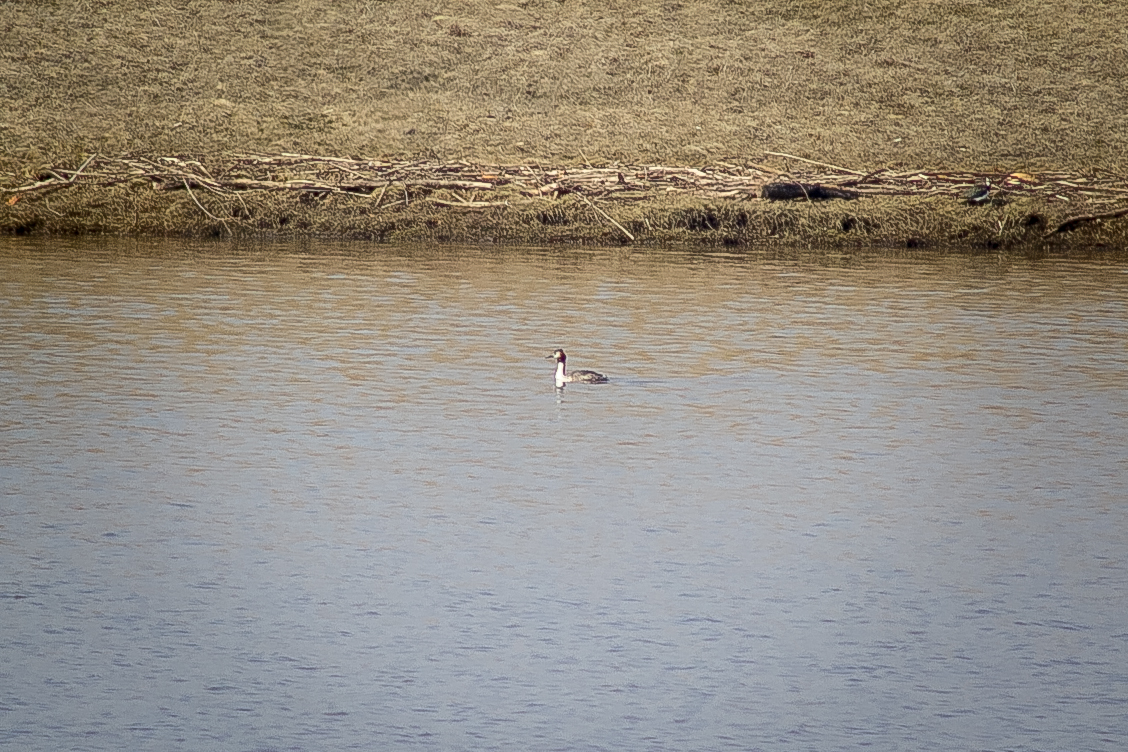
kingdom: Animalia
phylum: Chordata
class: Aves
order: Podicipediformes
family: Podicipedidae
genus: Podiceps
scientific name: Podiceps cristatus
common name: Great crested grebe
